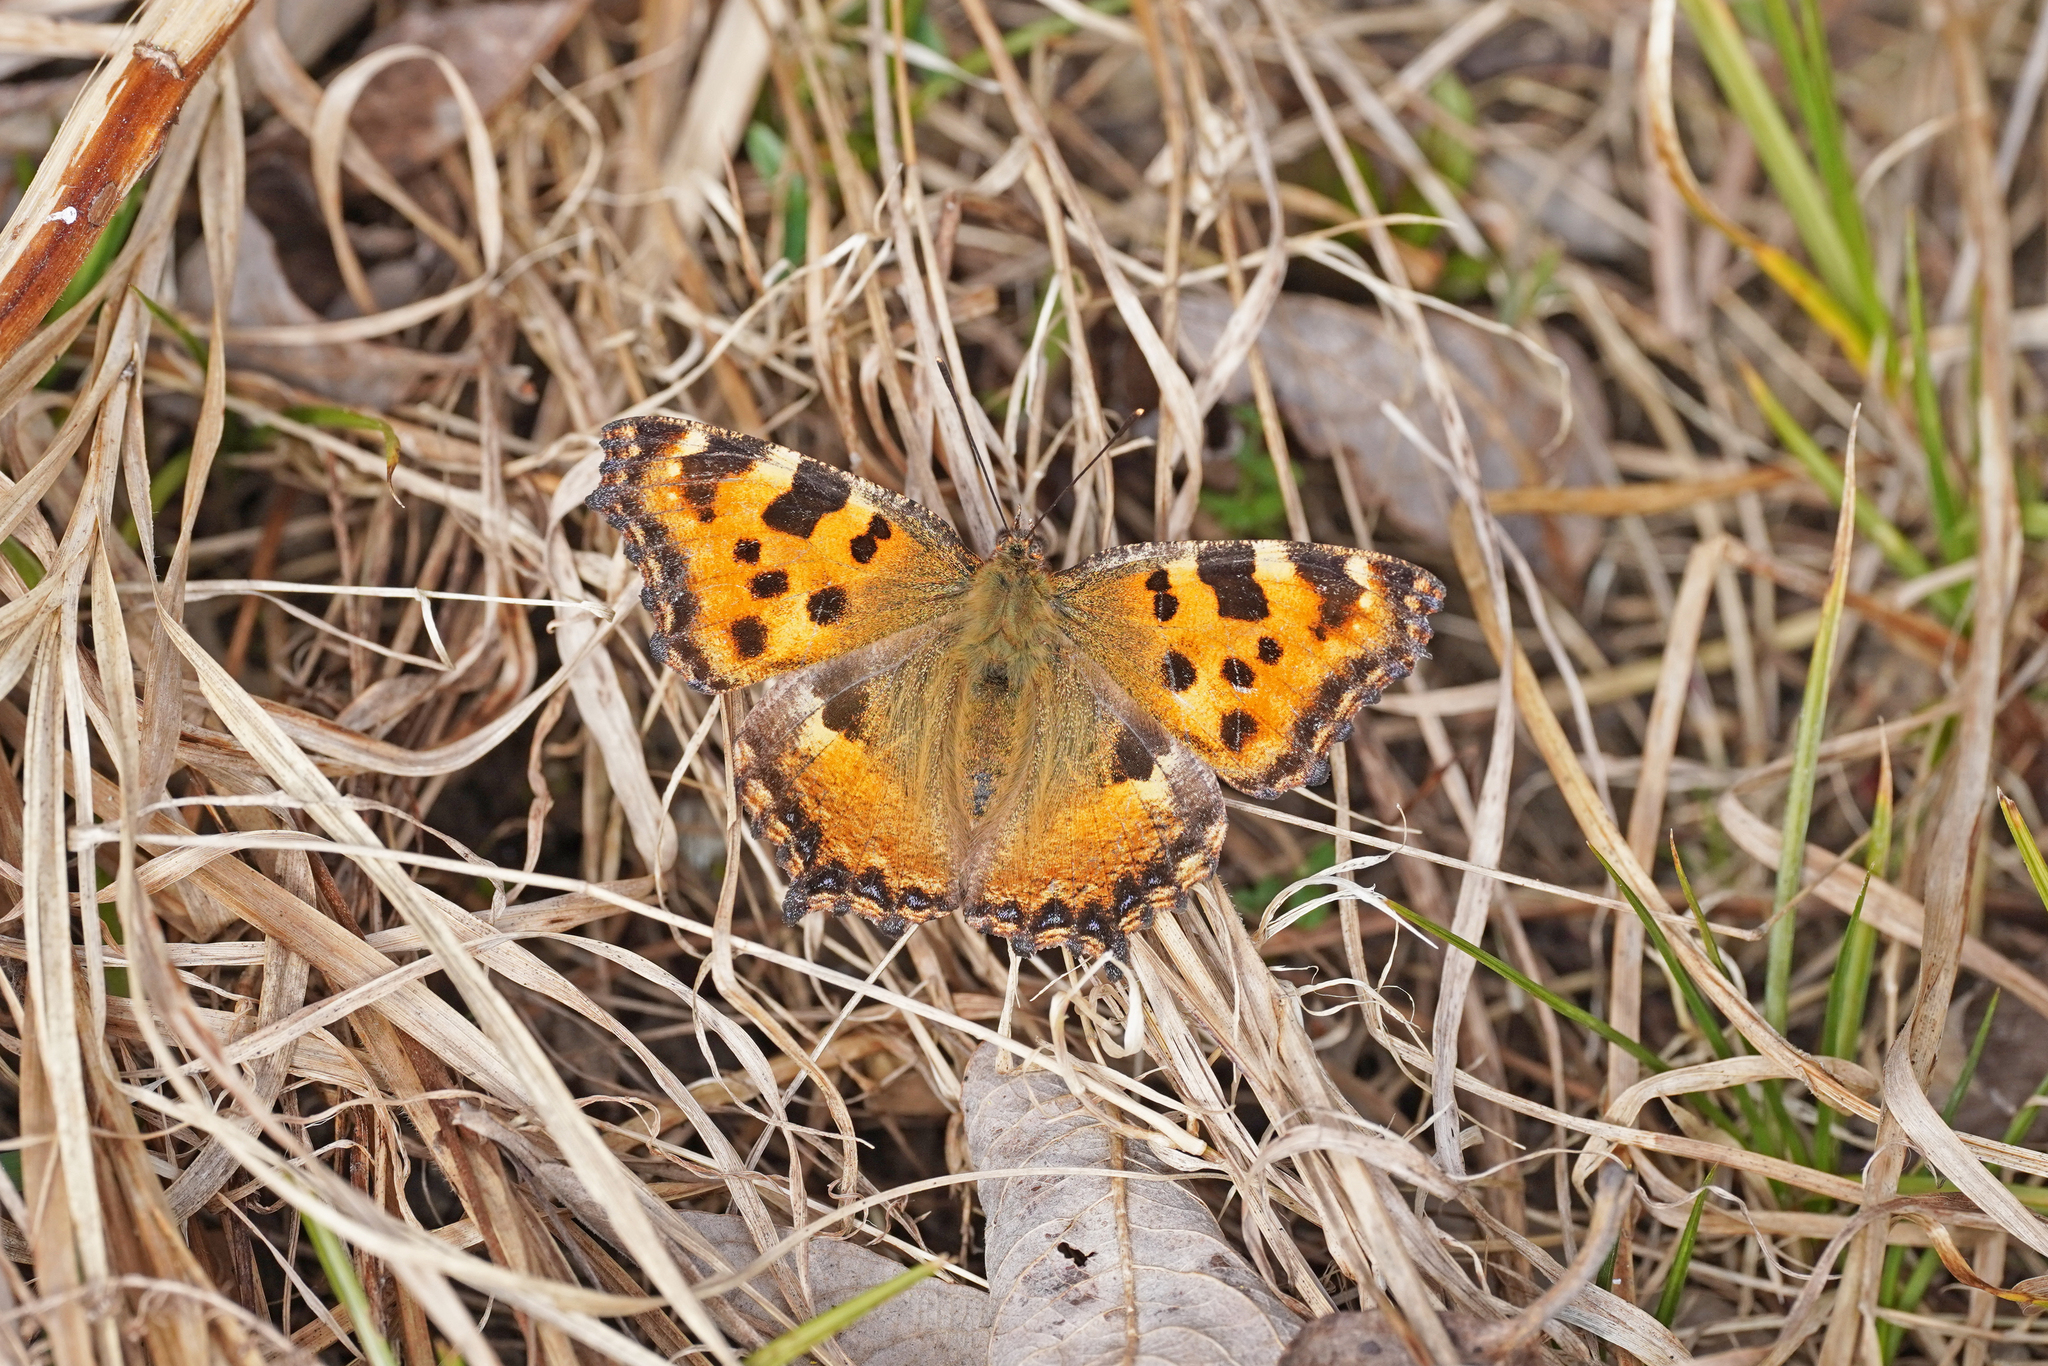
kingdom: Animalia
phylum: Arthropoda
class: Insecta
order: Lepidoptera
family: Nymphalidae
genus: Nymphalis
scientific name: Nymphalis polychloros
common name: Large tortoiseshell
